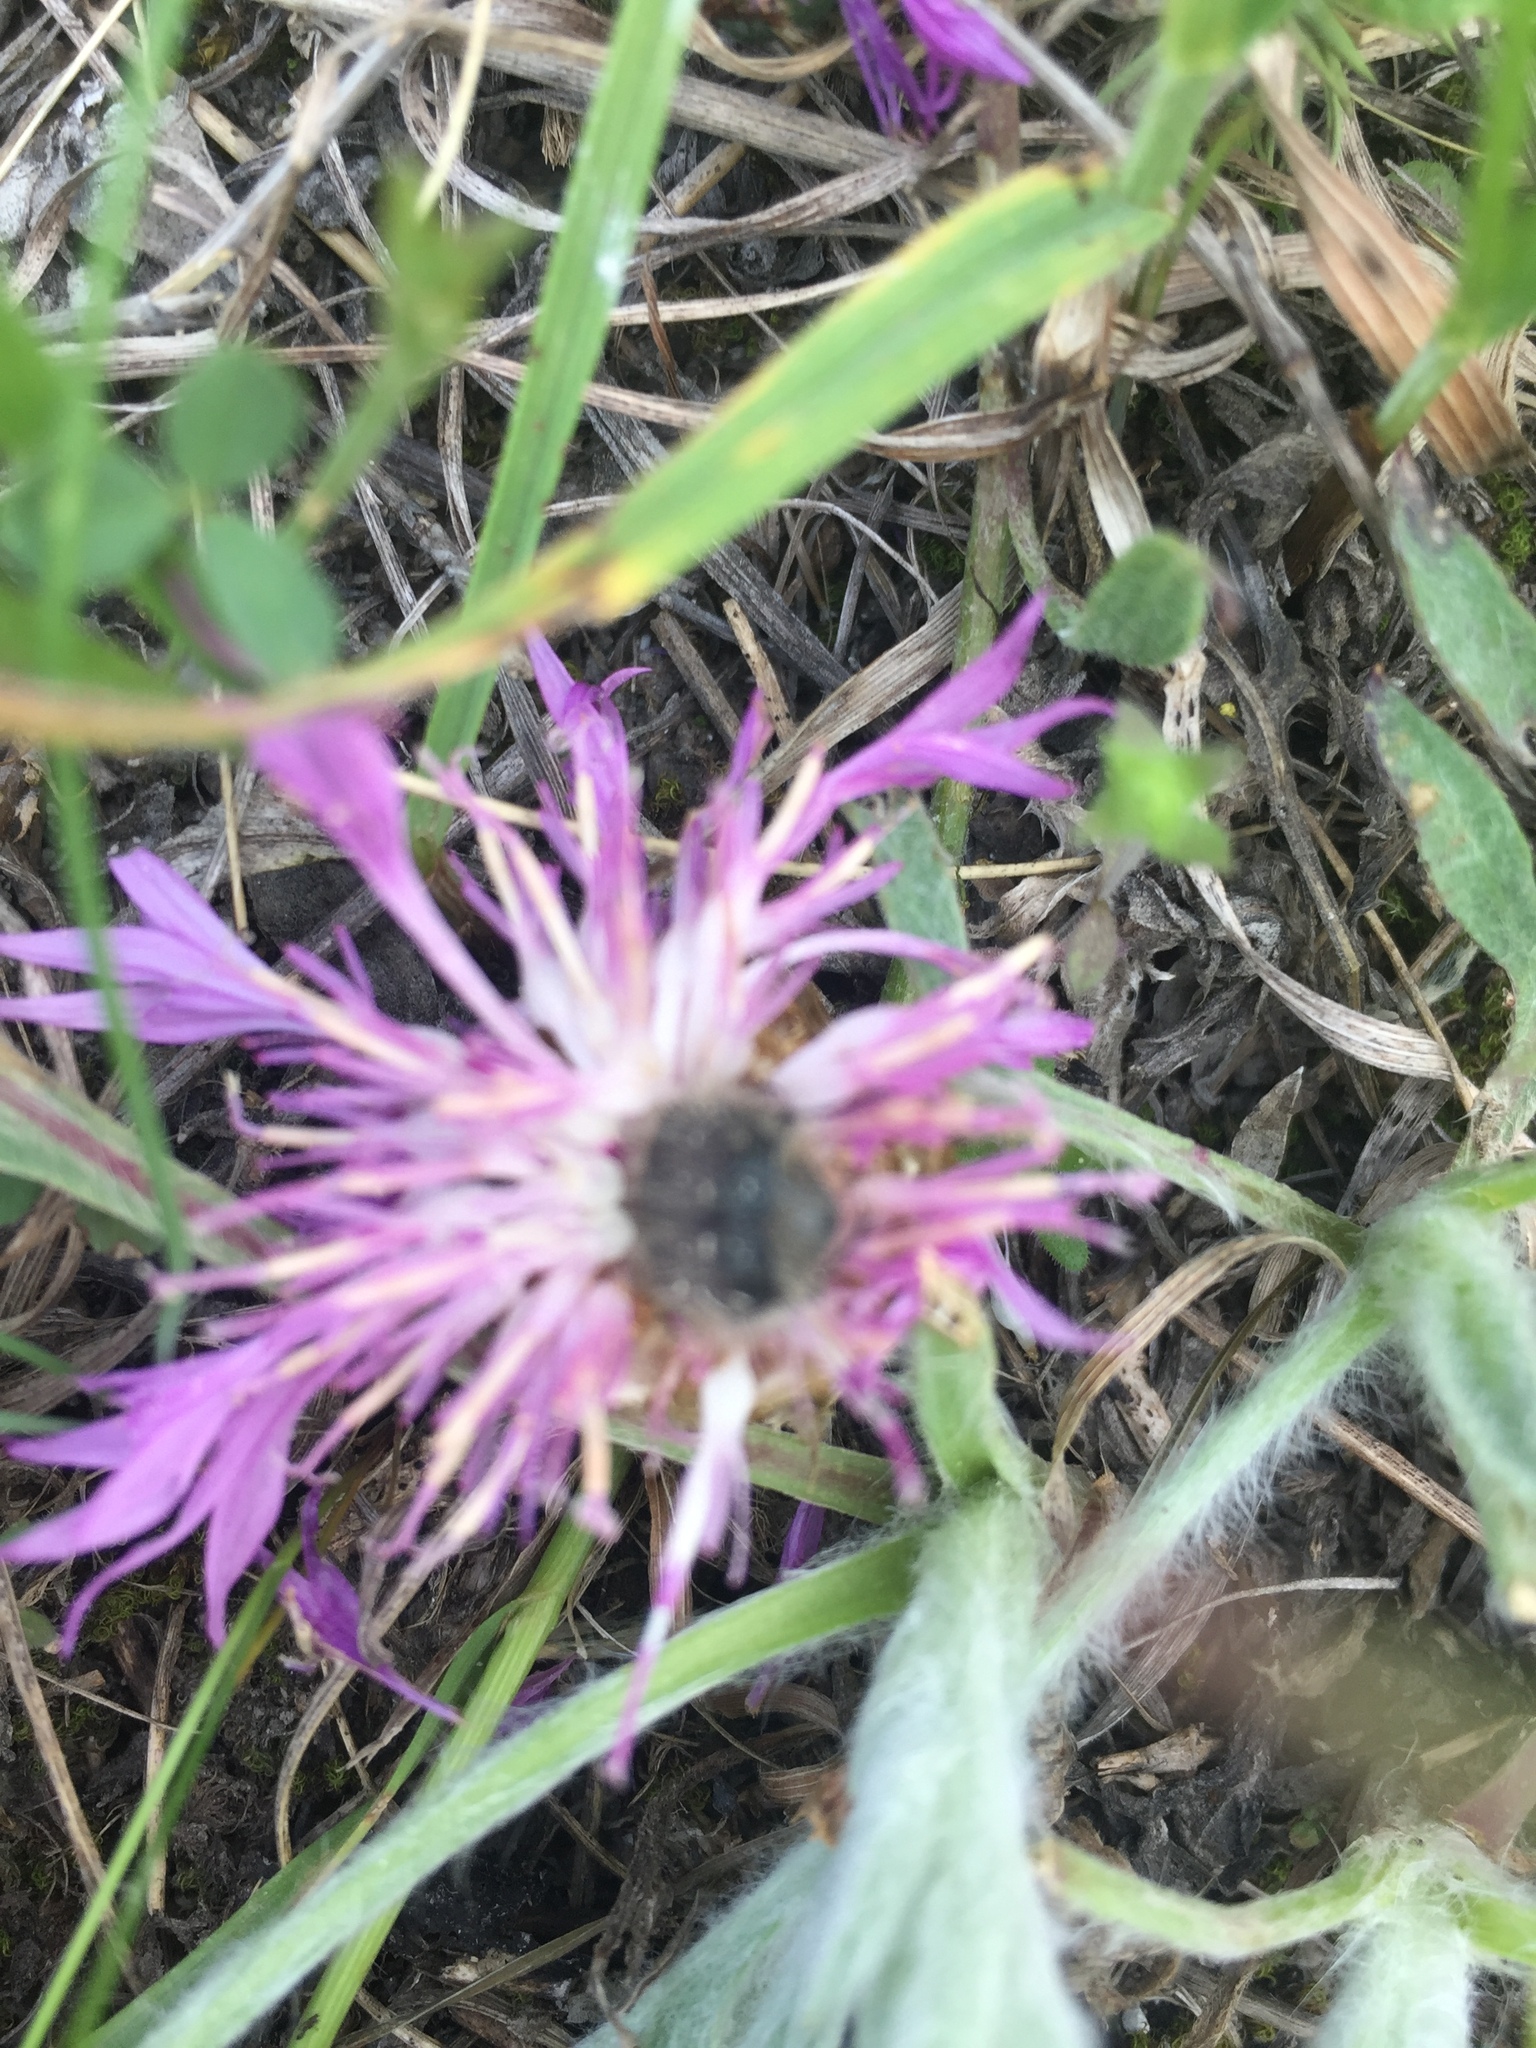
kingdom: Plantae
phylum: Tracheophyta
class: Magnoliopsida
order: Asterales
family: Asteraceae
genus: Psephellus
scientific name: Psephellus marschallianus
